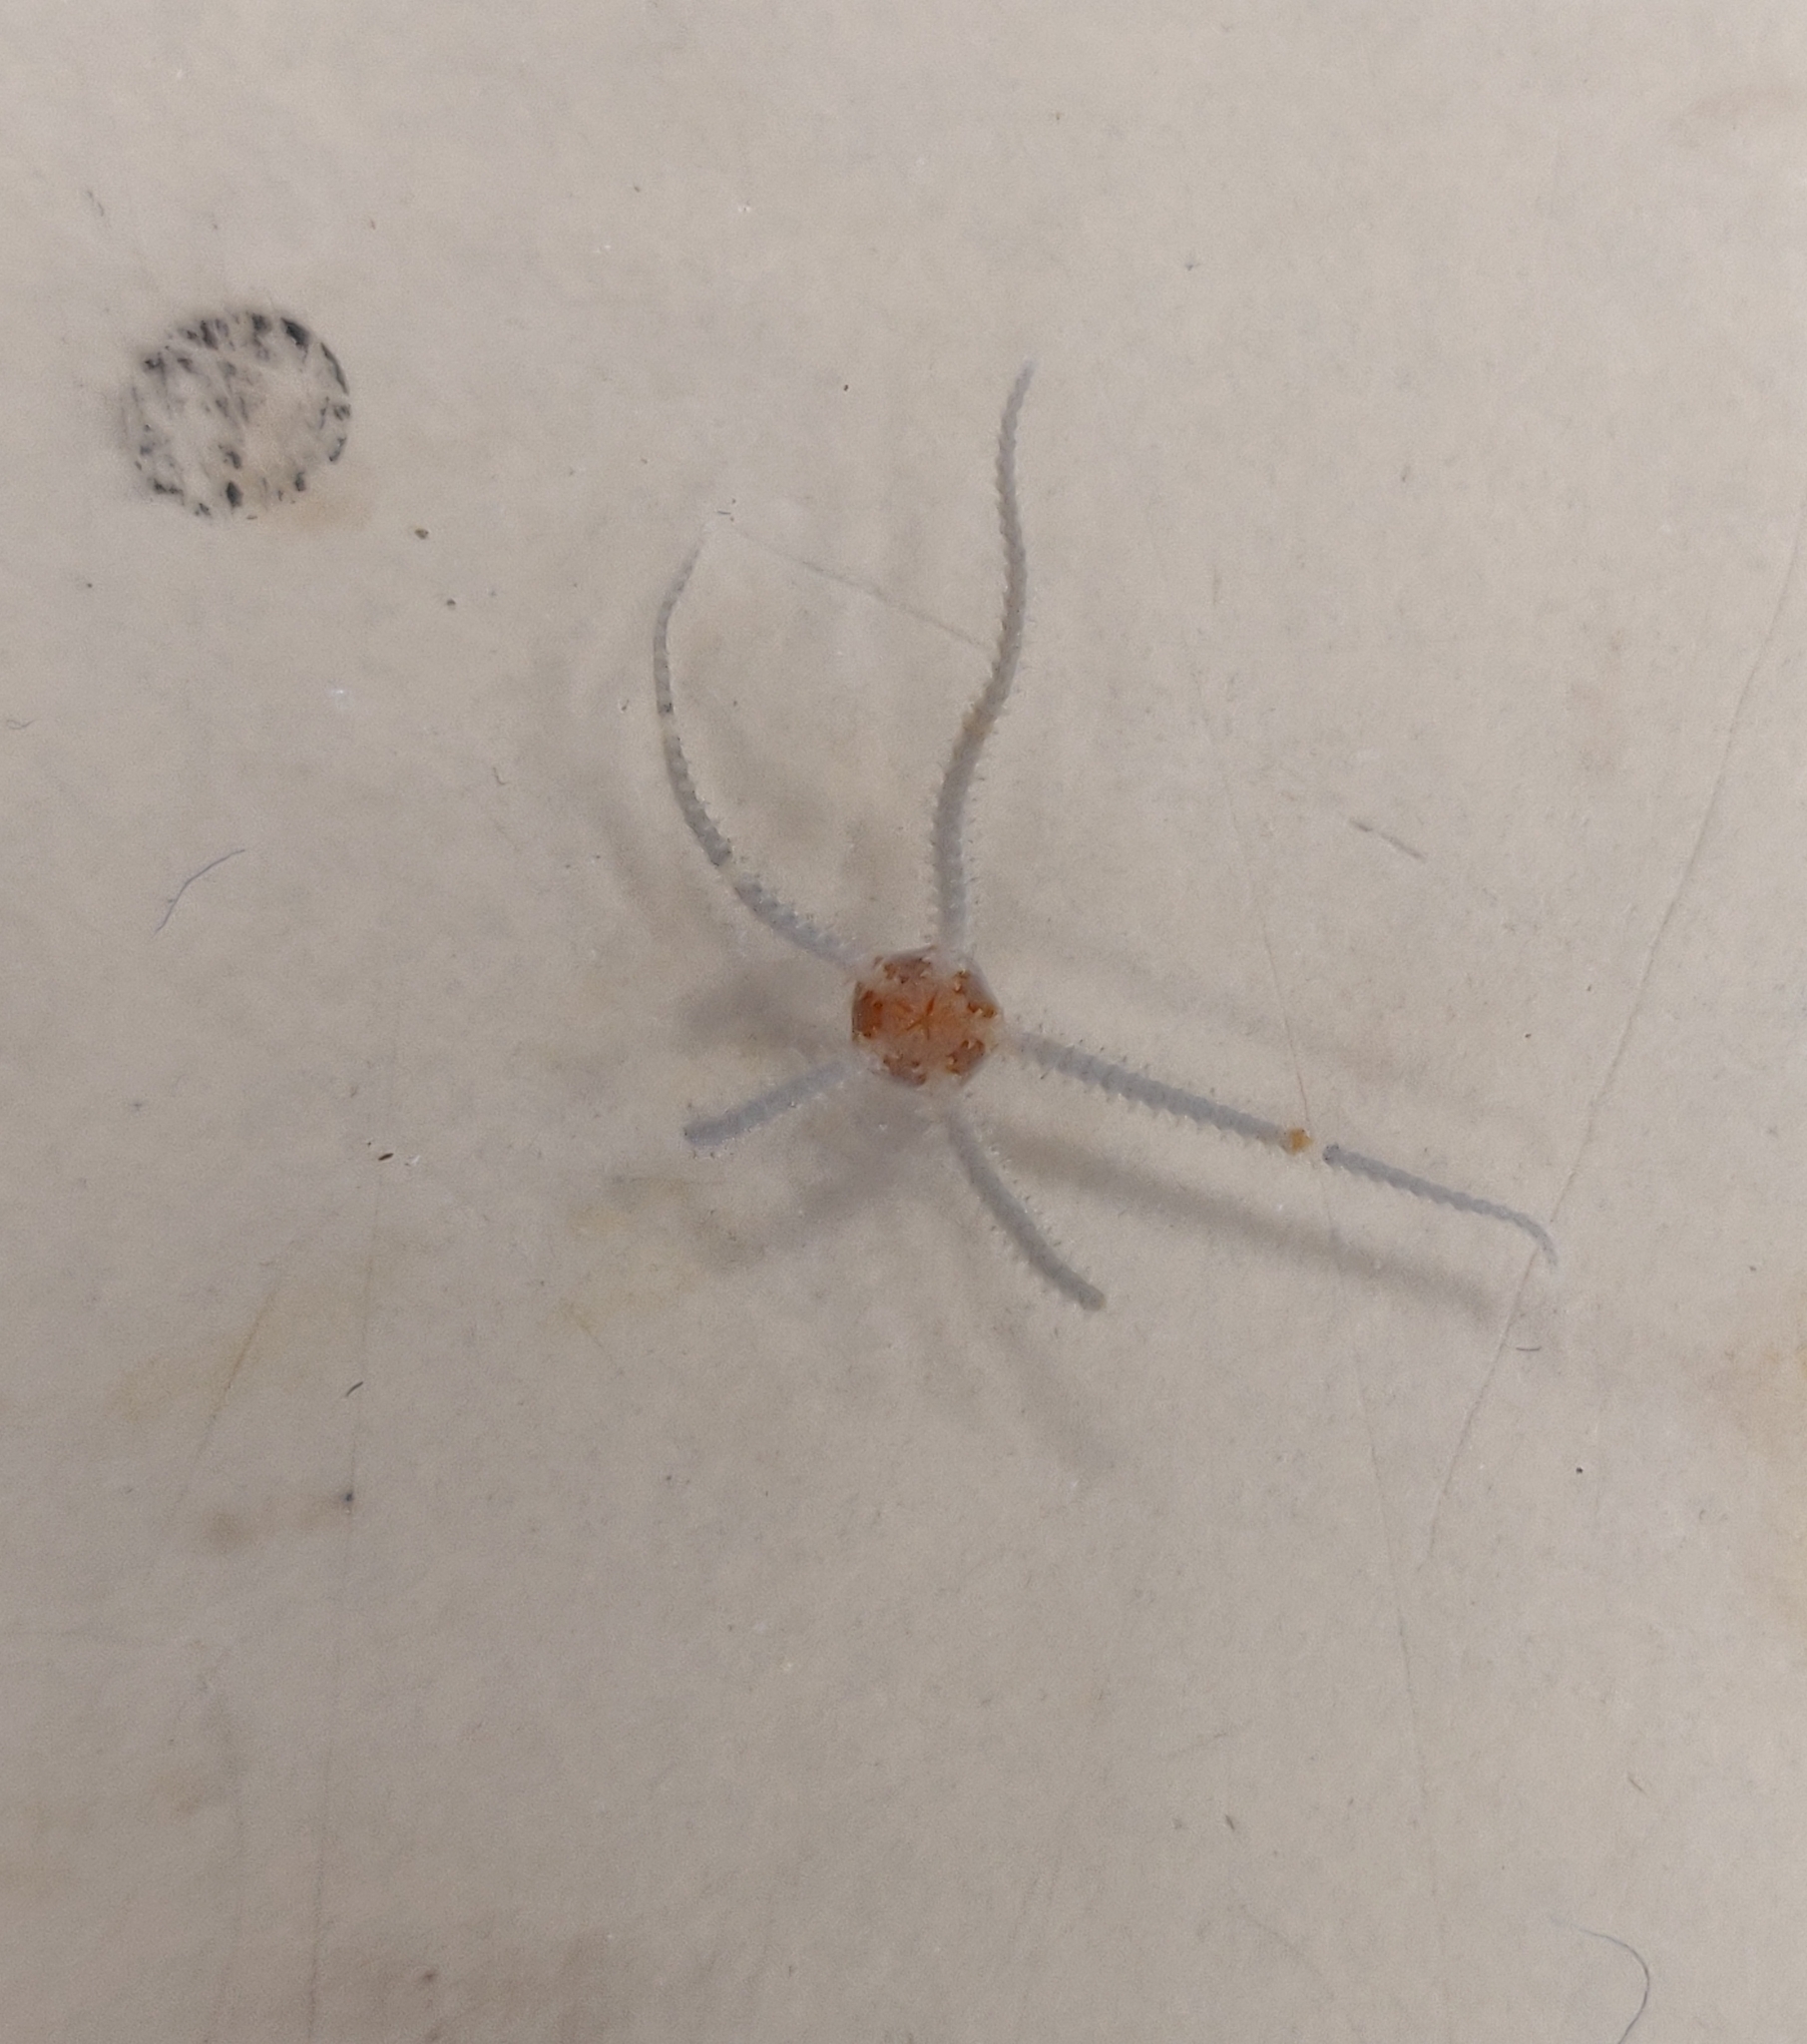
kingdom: Animalia
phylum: Echinodermata
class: Ophiuroidea
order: Amphilepidida
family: Amphiuridae
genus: Amphipholis
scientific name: Amphipholis squamata
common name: Brooding snake star
